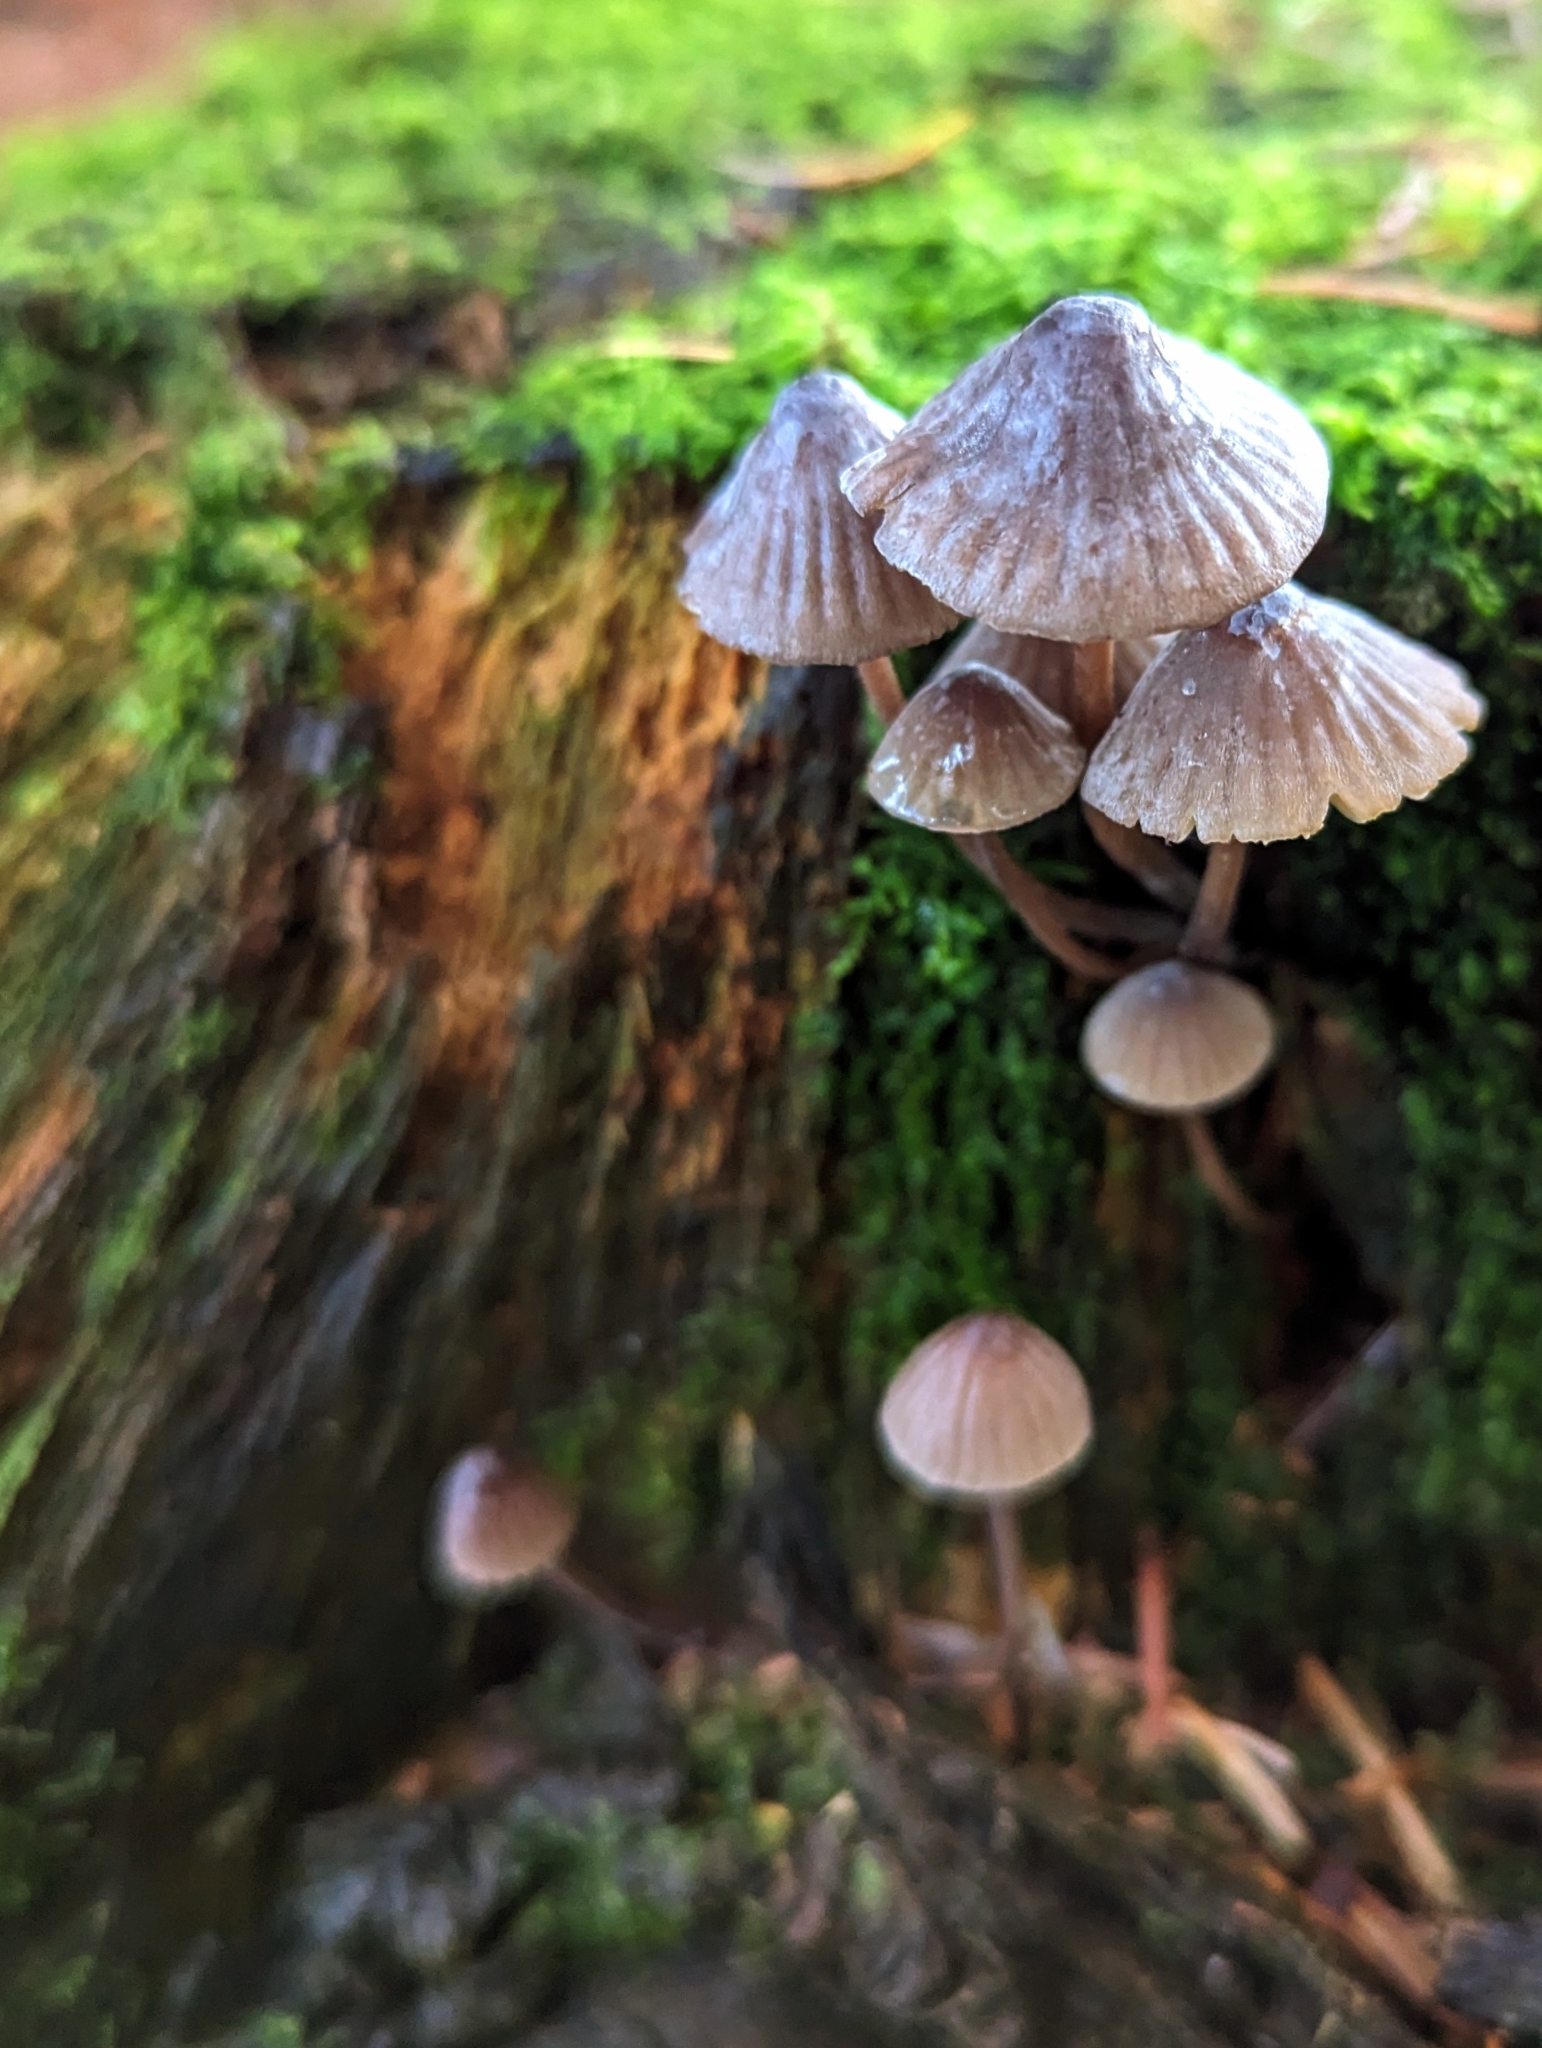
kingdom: Fungi
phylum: Basidiomycota
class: Agaricomycetes
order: Agaricales
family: Mycenaceae
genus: Mycena
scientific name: Mycena galopus
